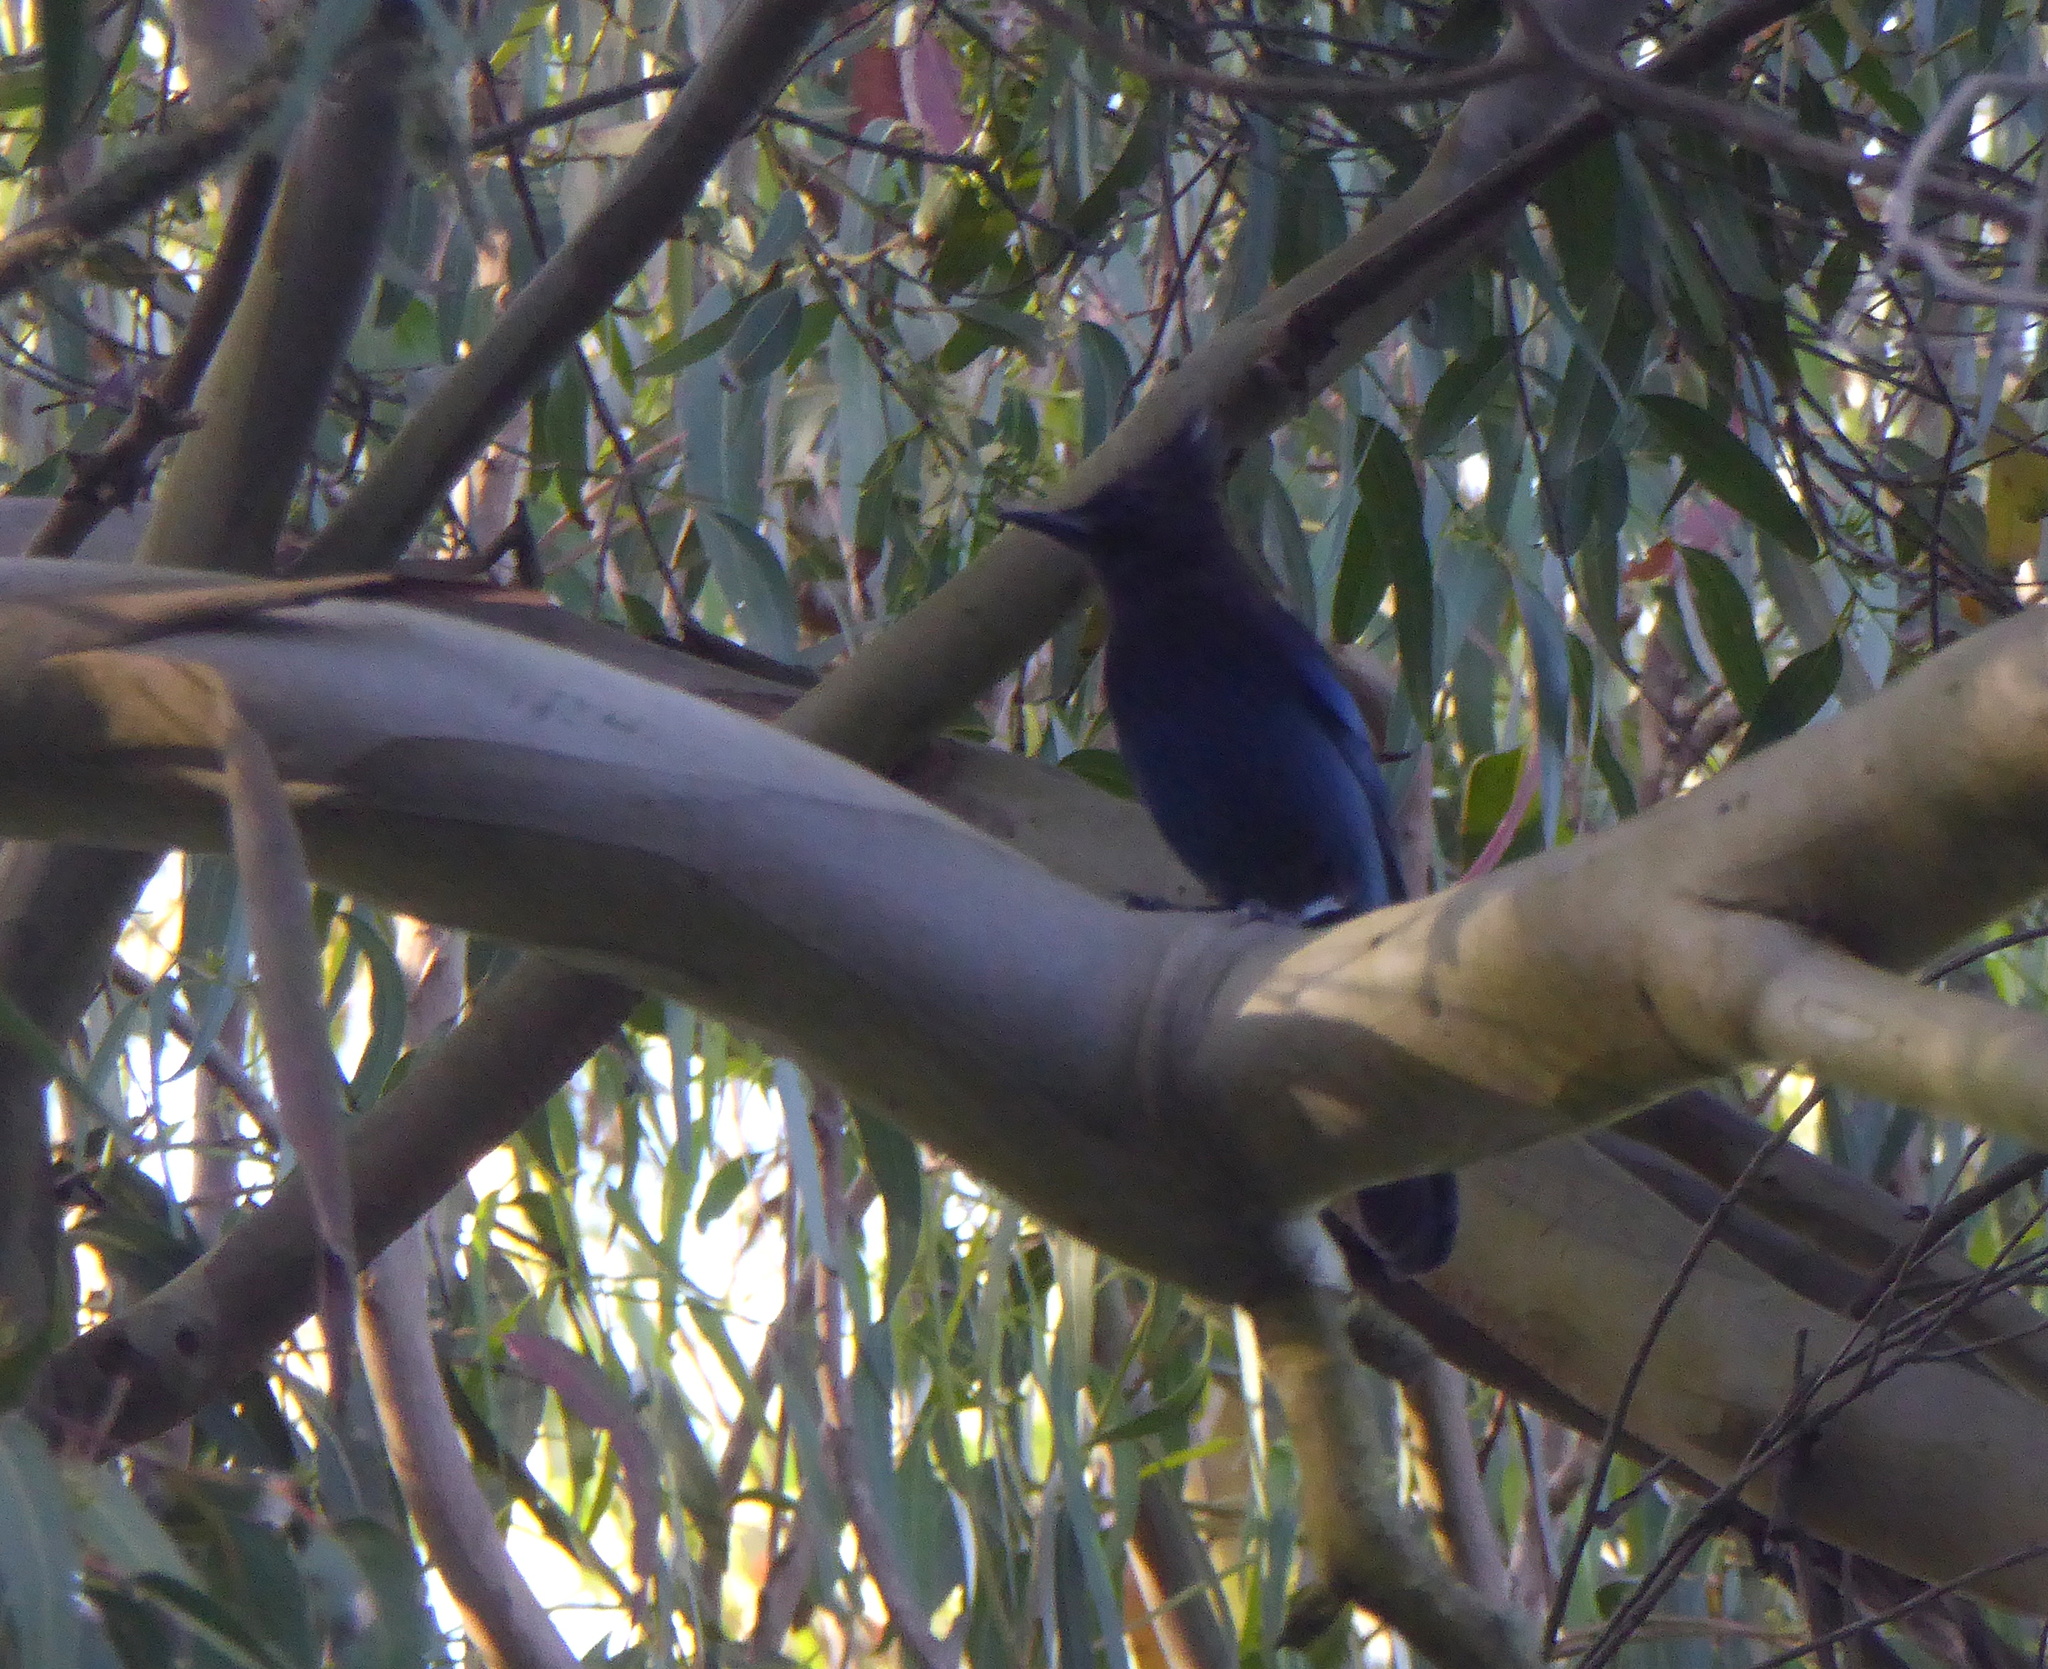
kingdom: Animalia
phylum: Chordata
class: Aves
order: Passeriformes
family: Corvidae
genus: Cyanocitta
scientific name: Cyanocitta stelleri
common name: Steller's jay
